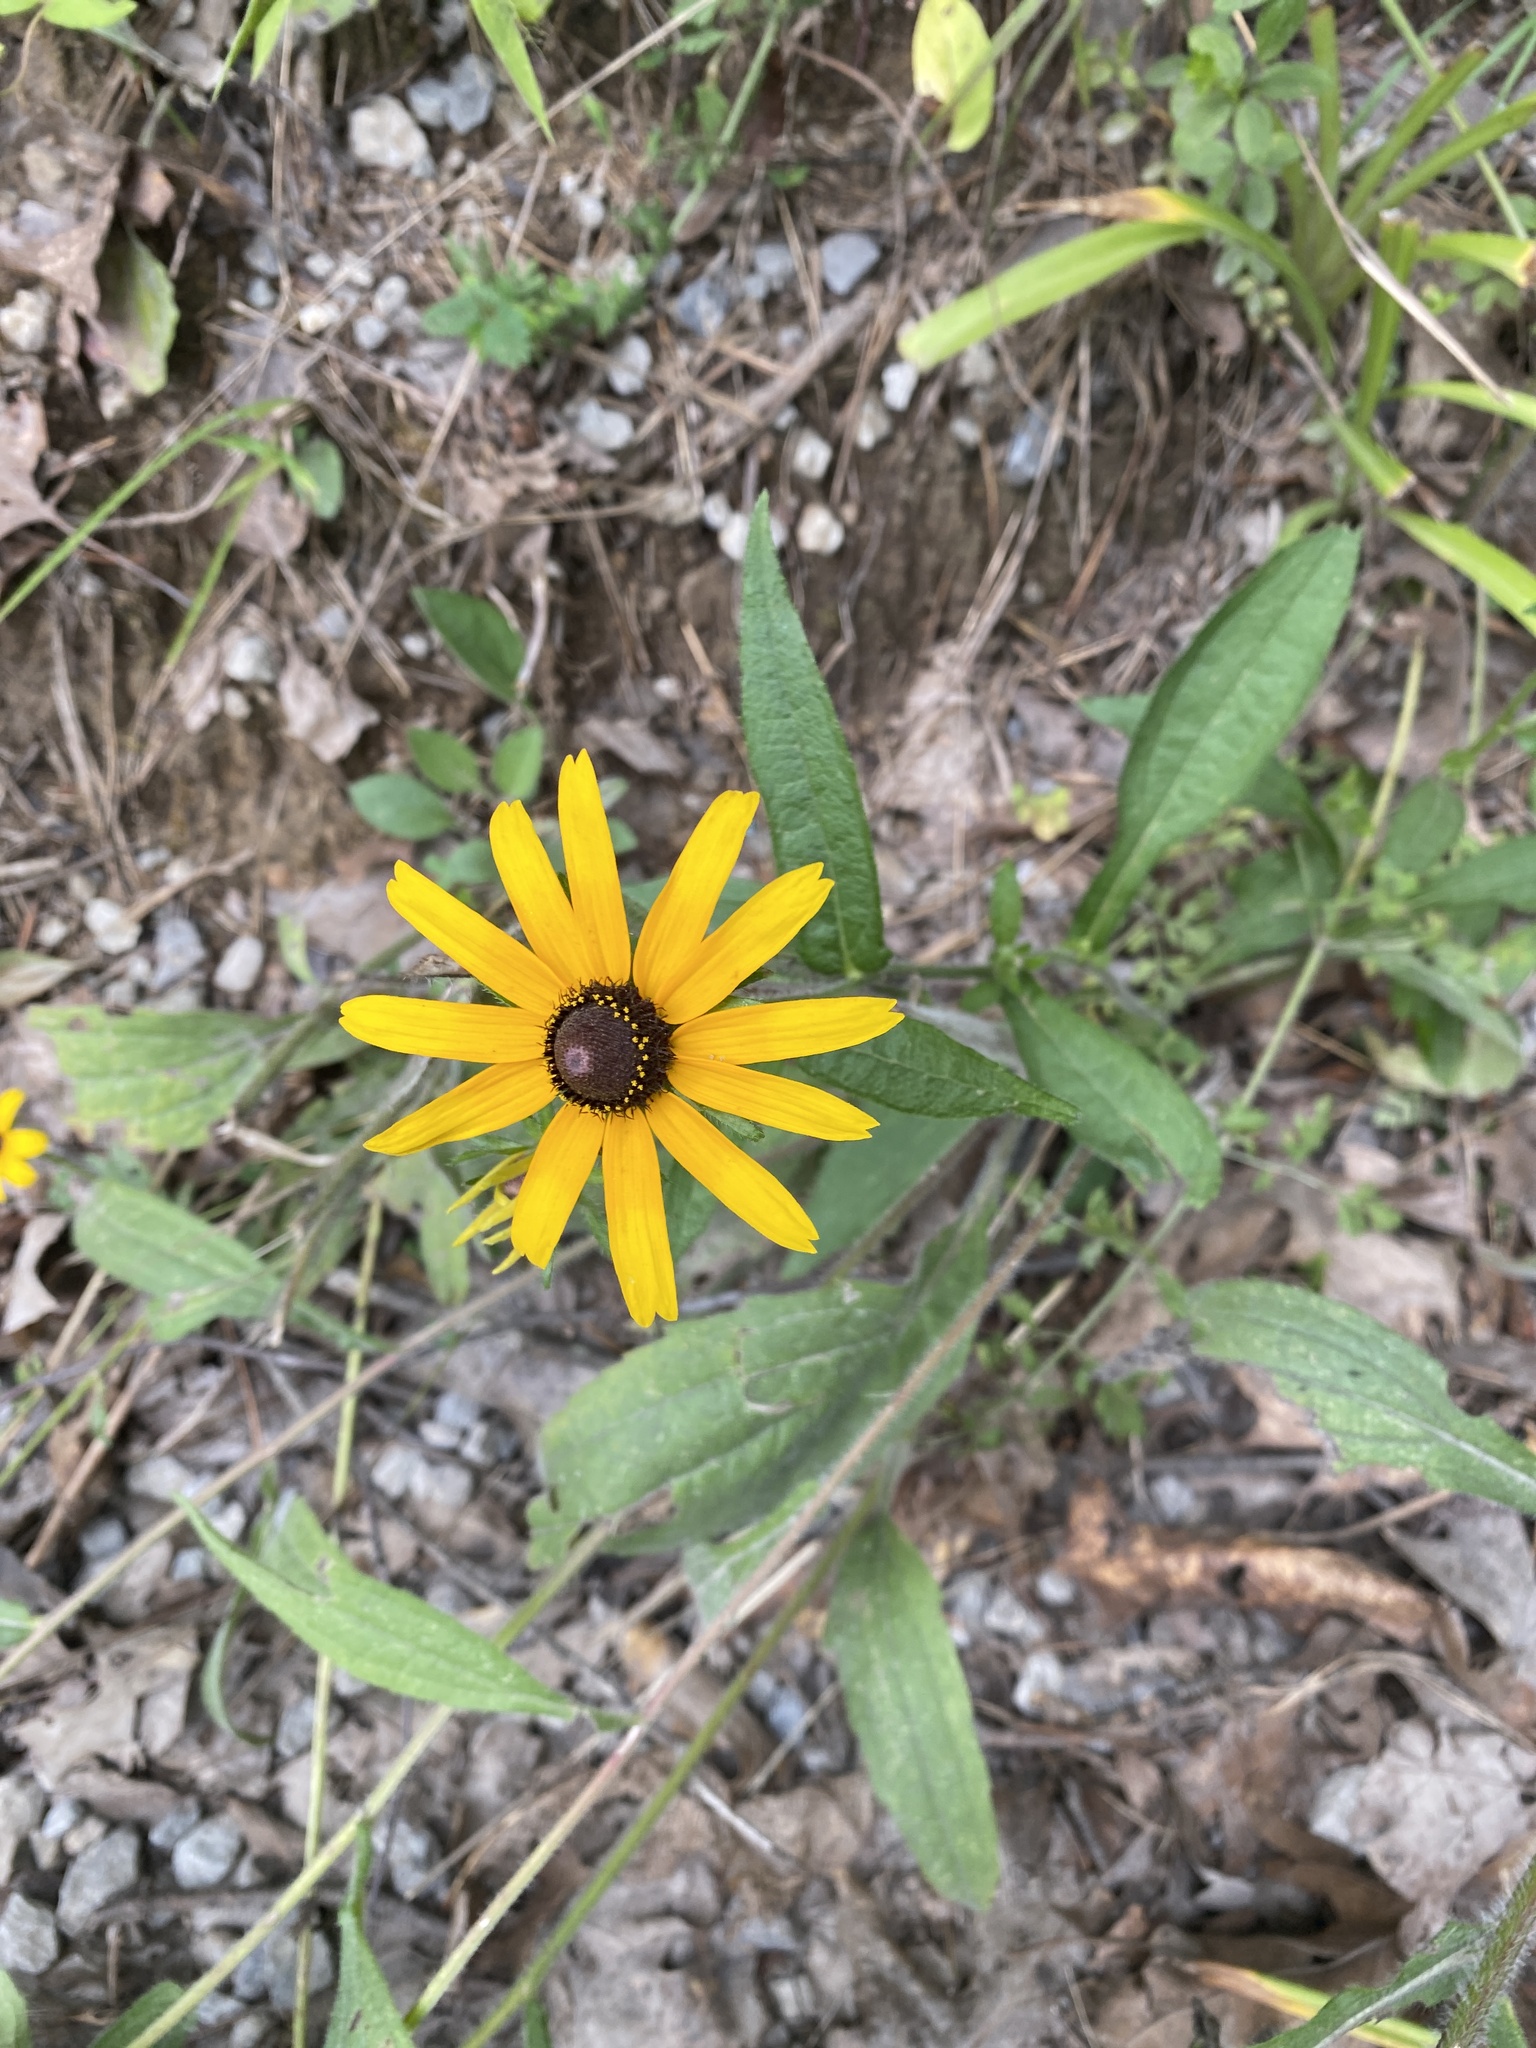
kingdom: Plantae
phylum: Tracheophyta
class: Magnoliopsida
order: Asterales
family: Asteraceae
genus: Rudbeckia
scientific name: Rudbeckia hirta
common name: Black-eyed-susan
